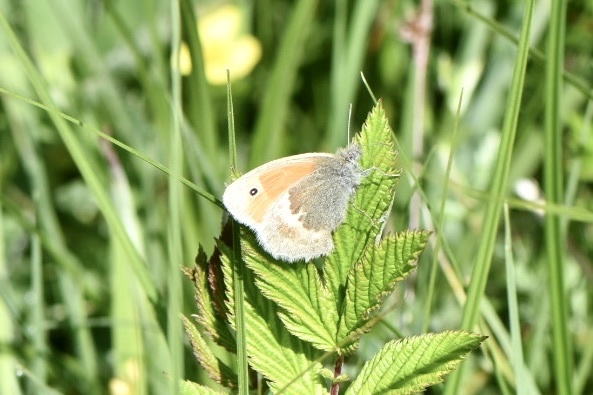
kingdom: Animalia
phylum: Arthropoda
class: Insecta
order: Lepidoptera
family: Nymphalidae
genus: Coenonympha
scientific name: Coenonympha pamphilus
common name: Small heath
